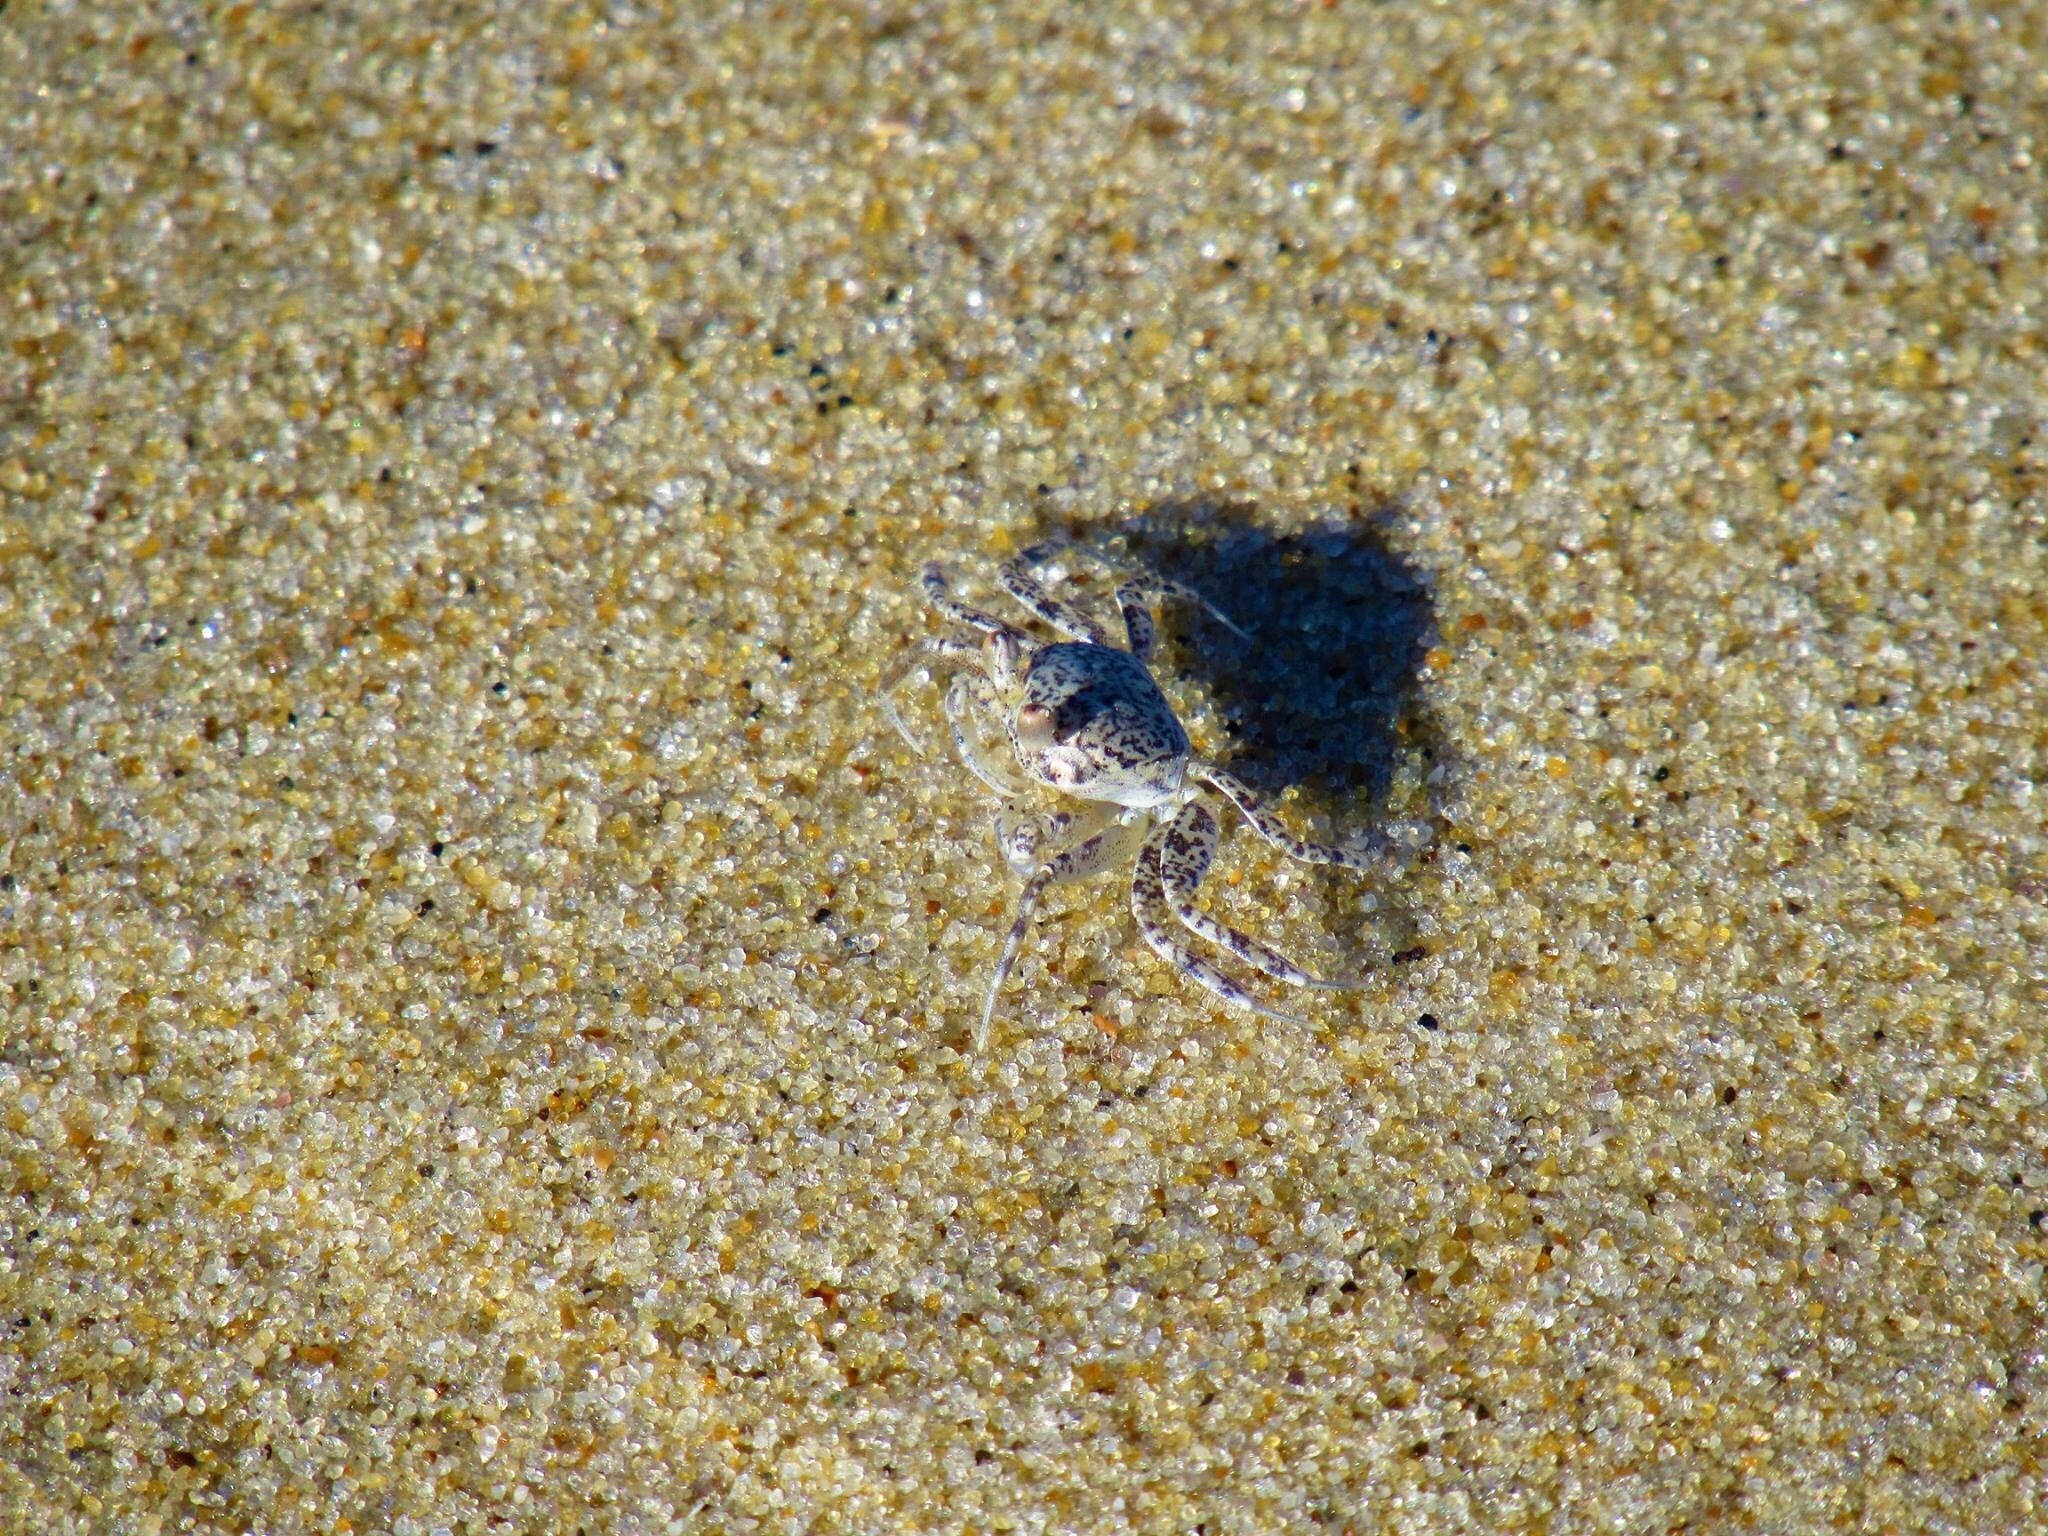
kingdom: Animalia
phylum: Arthropoda
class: Malacostraca
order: Decapoda
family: Ocypodidae
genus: Ocypode
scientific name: Ocypode quadrata
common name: Ghost crab
